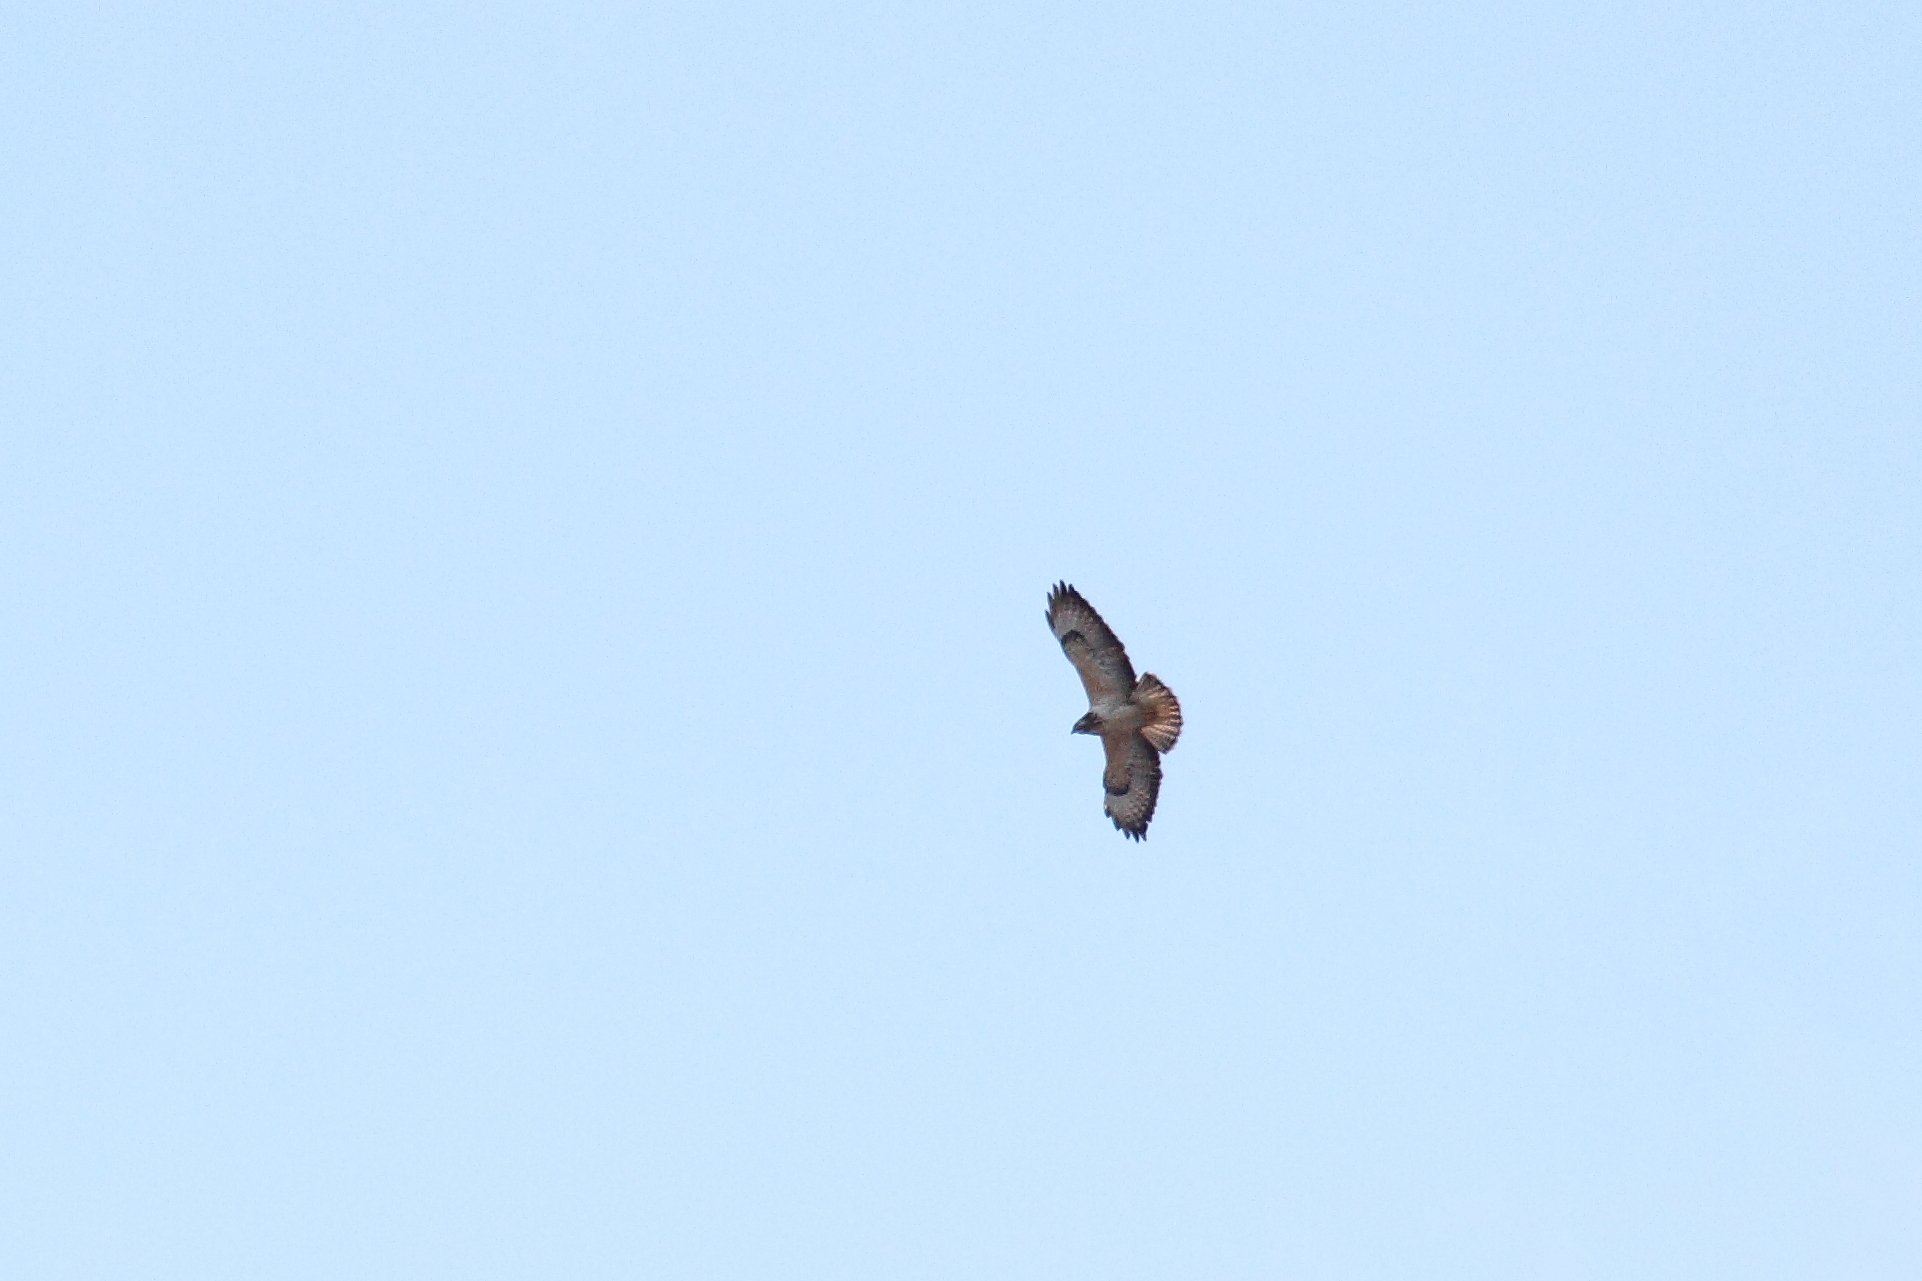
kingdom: Animalia
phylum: Chordata
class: Aves
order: Accipitriformes
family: Accipitridae
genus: Buteo
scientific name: Buteo buteo
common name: Common buzzard
